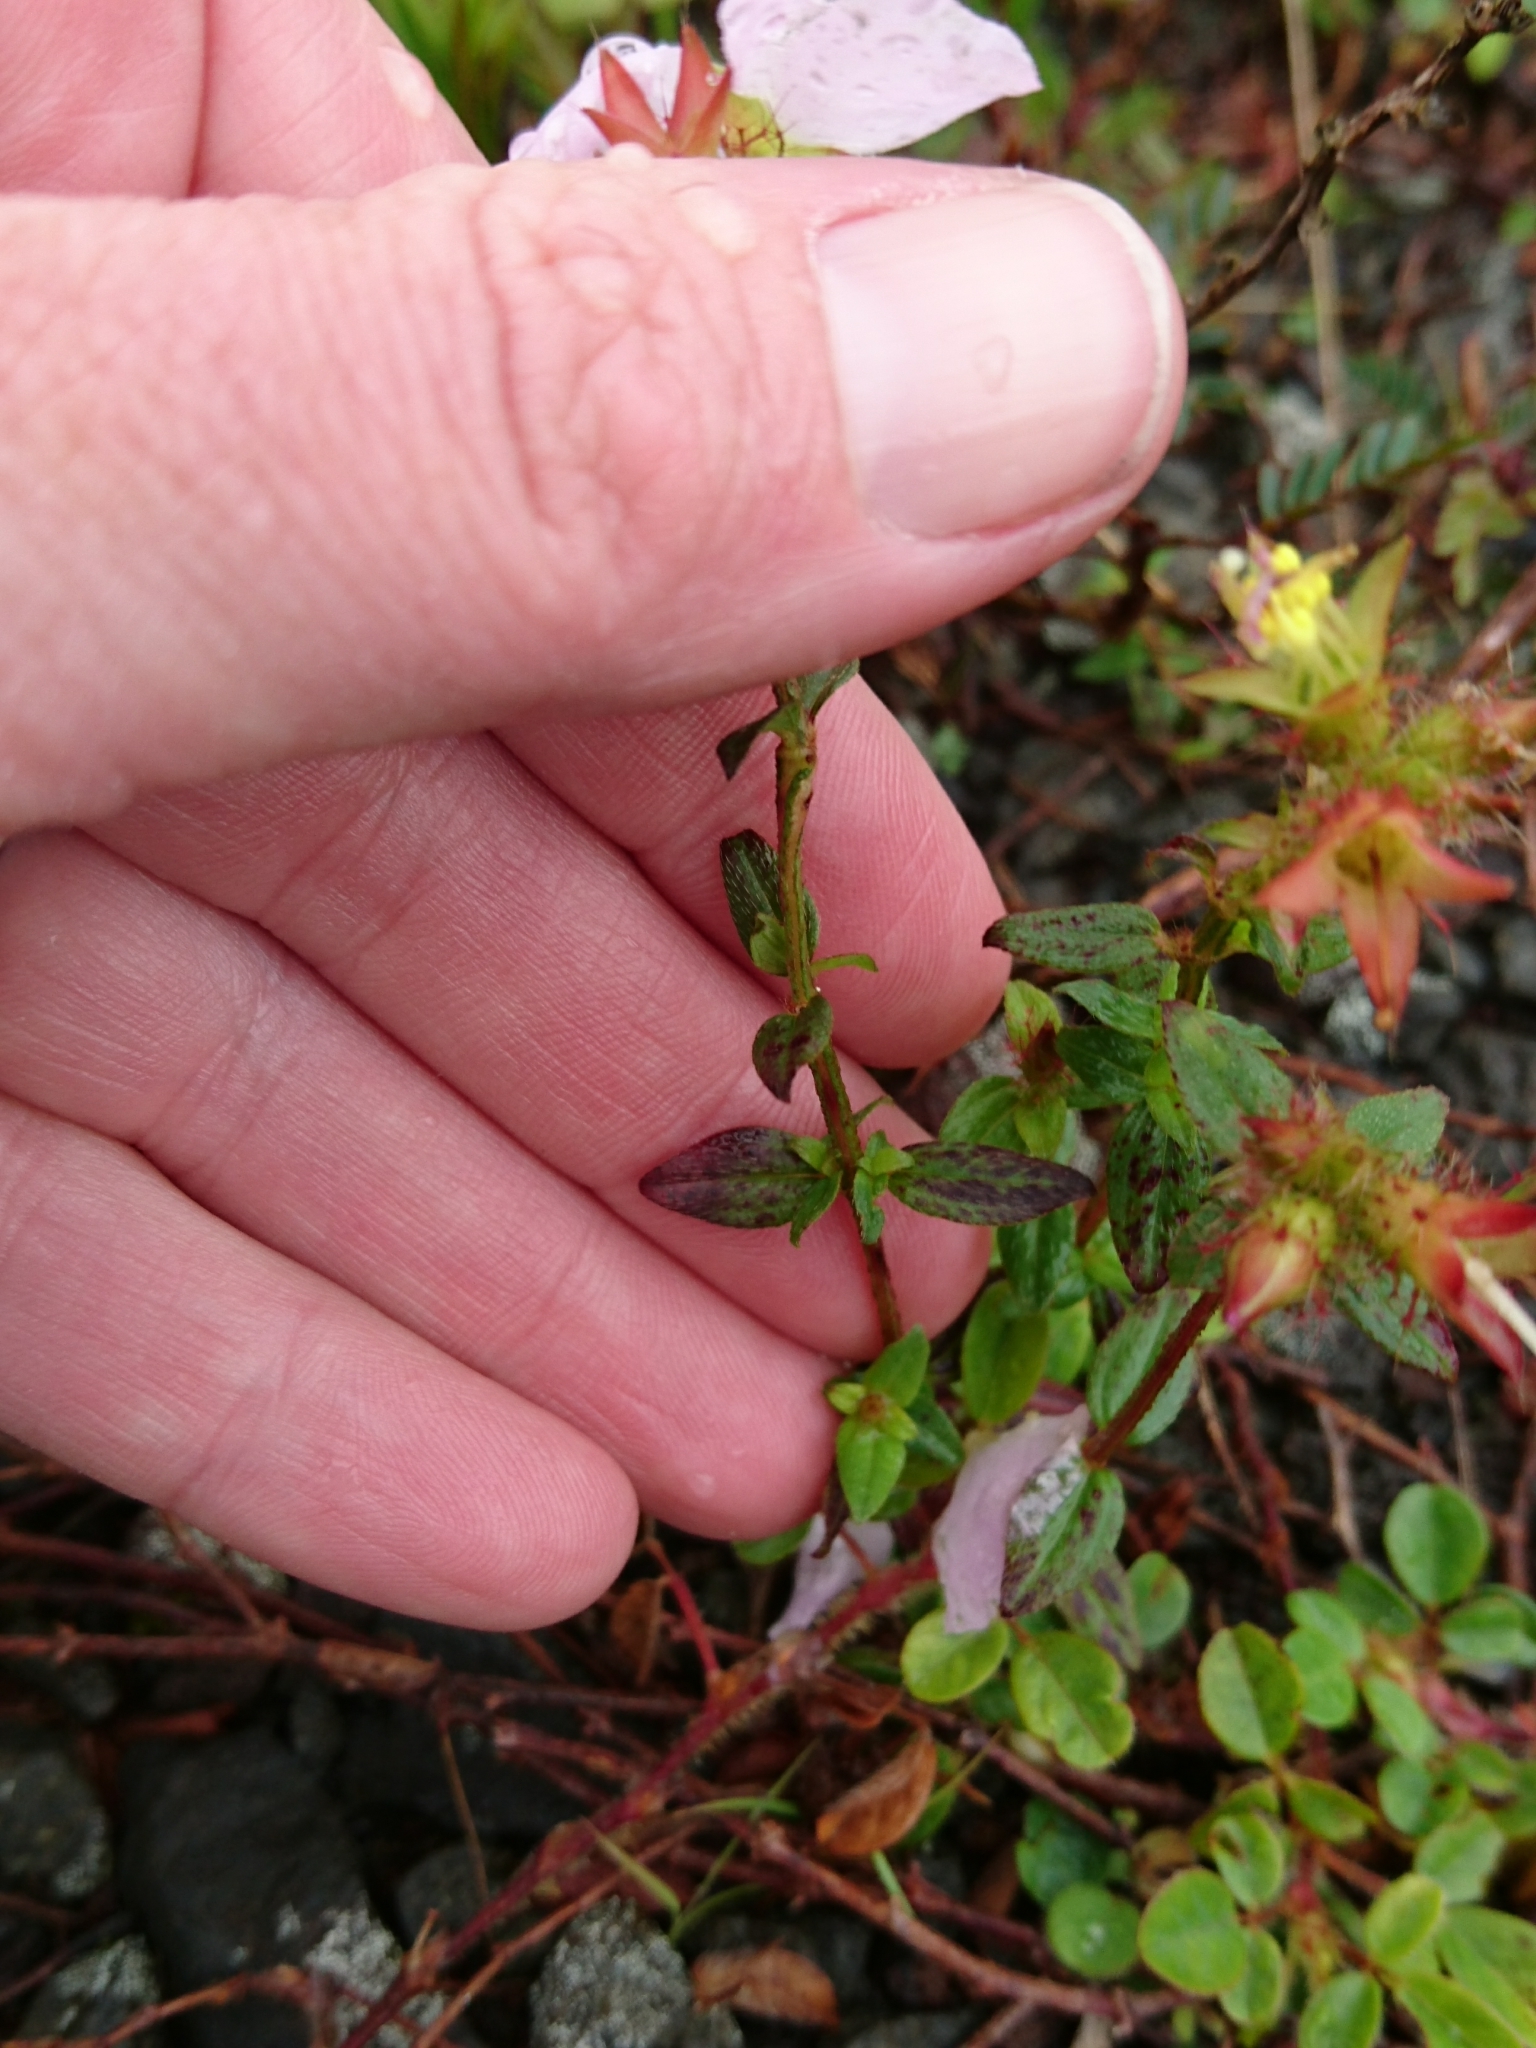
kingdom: Plantae
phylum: Tracheophyta
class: Magnoliopsida
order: Myrtales
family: Melastomataceae
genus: Pterolepis
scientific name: Pterolepis glomerata
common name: False meadowbeauty
